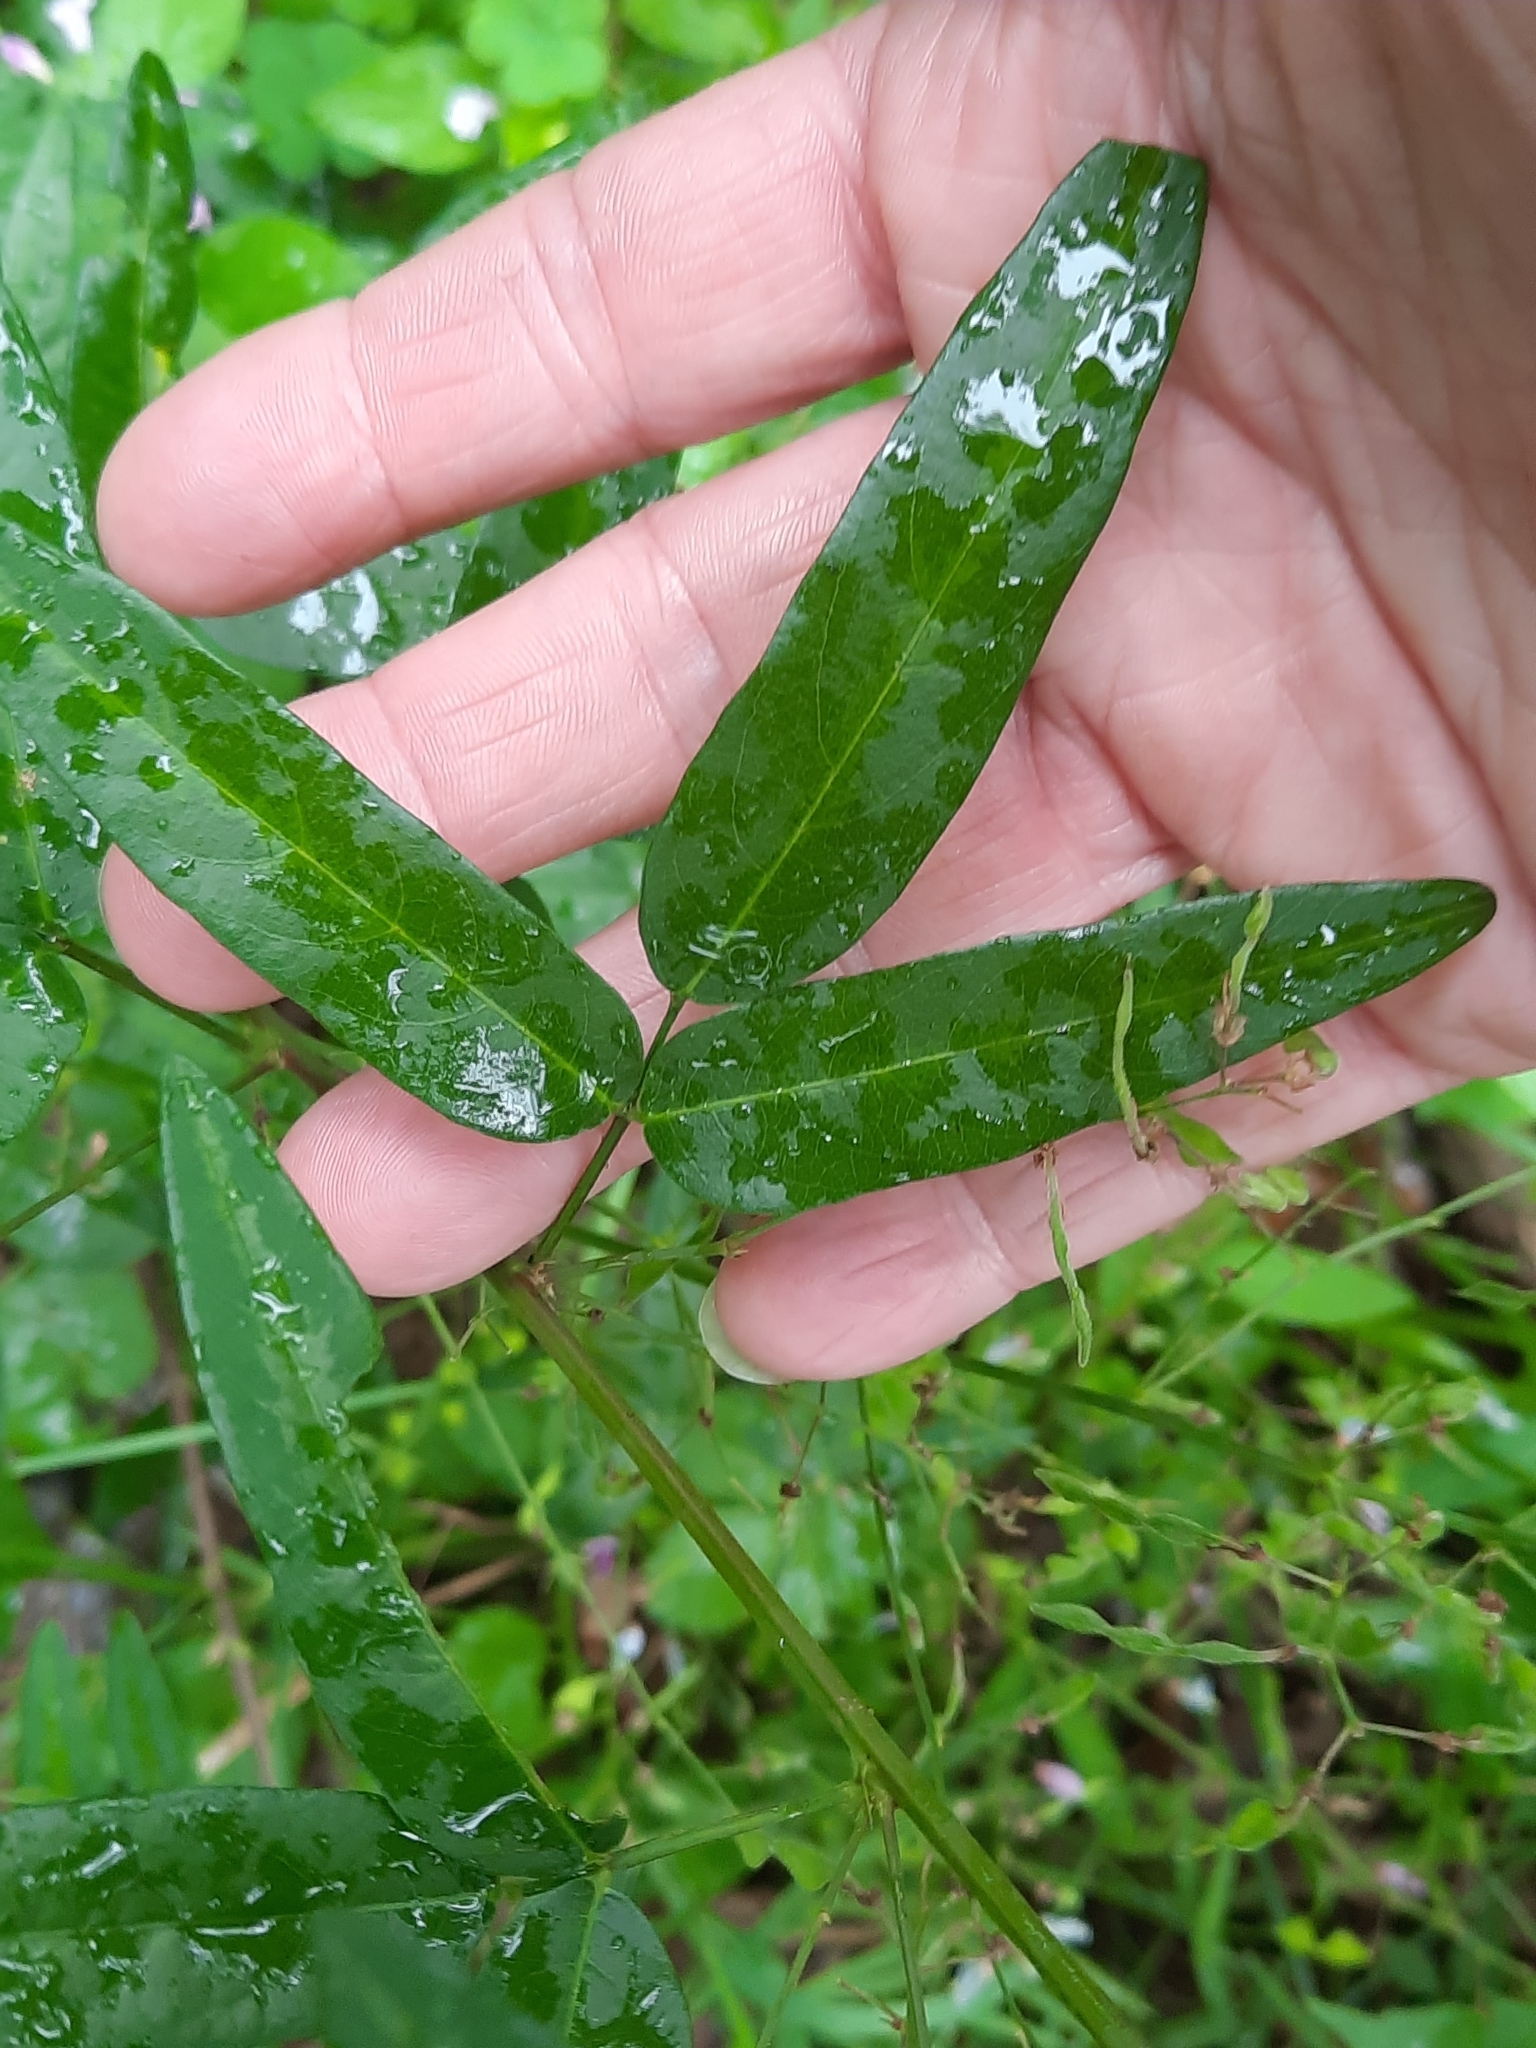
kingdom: Plantae
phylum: Tracheophyta
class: Magnoliopsida
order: Fabales
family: Fabaceae
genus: Desmodium
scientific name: Desmodium paniculatum
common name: Panicled tick-clover
